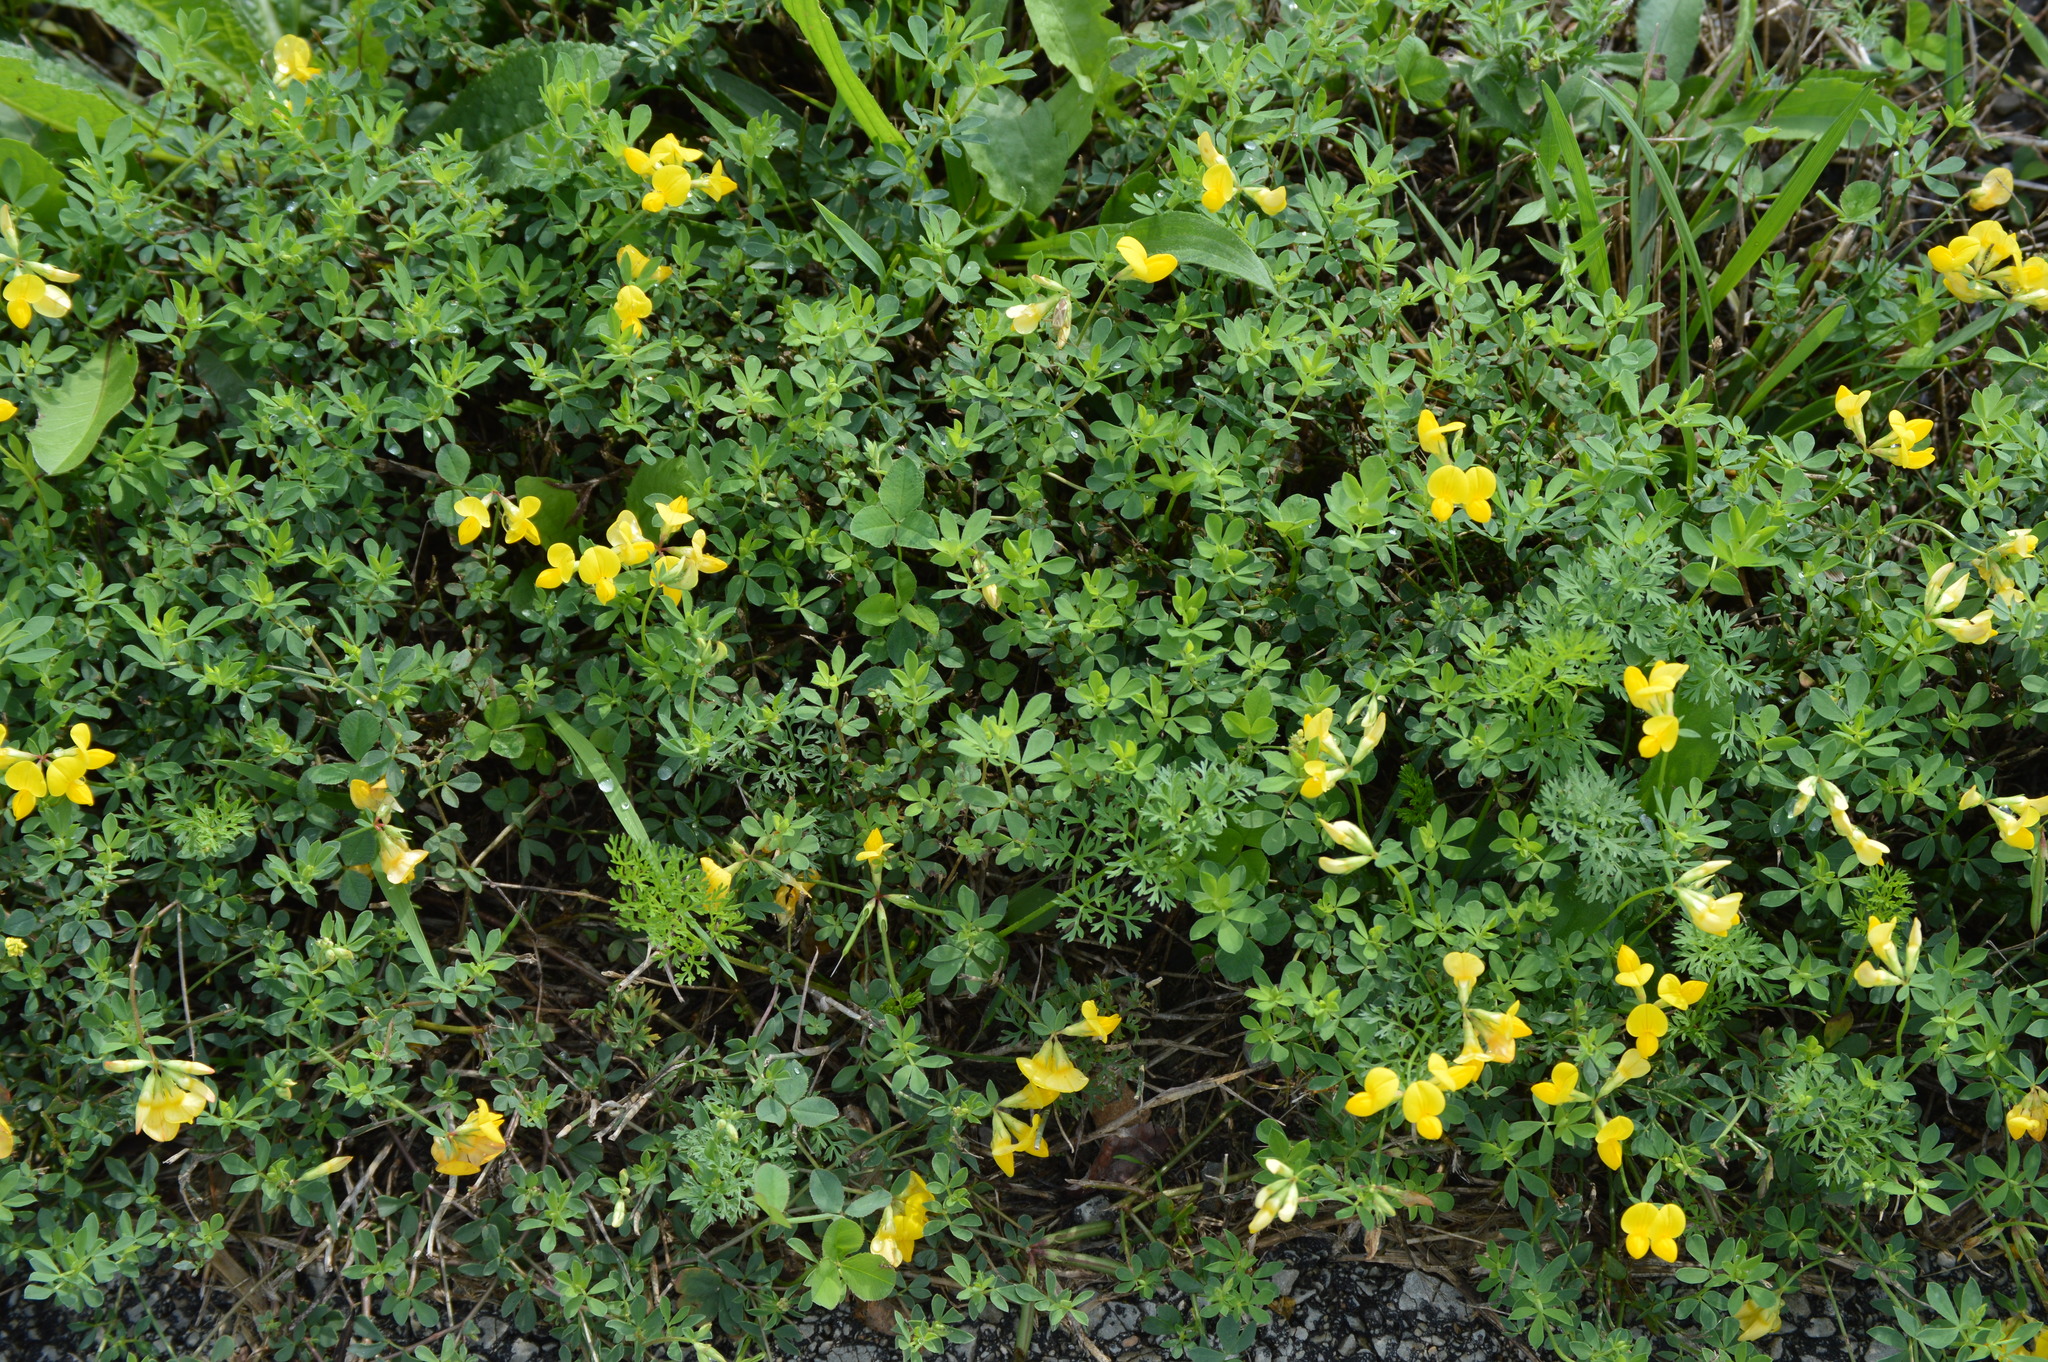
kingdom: Plantae
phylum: Tracheophyta
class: Magnoliopsida
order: Fabales
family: Fabaceae
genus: Lotus
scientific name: Lotus corniculatus
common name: Common bird's-foot-trefoil
